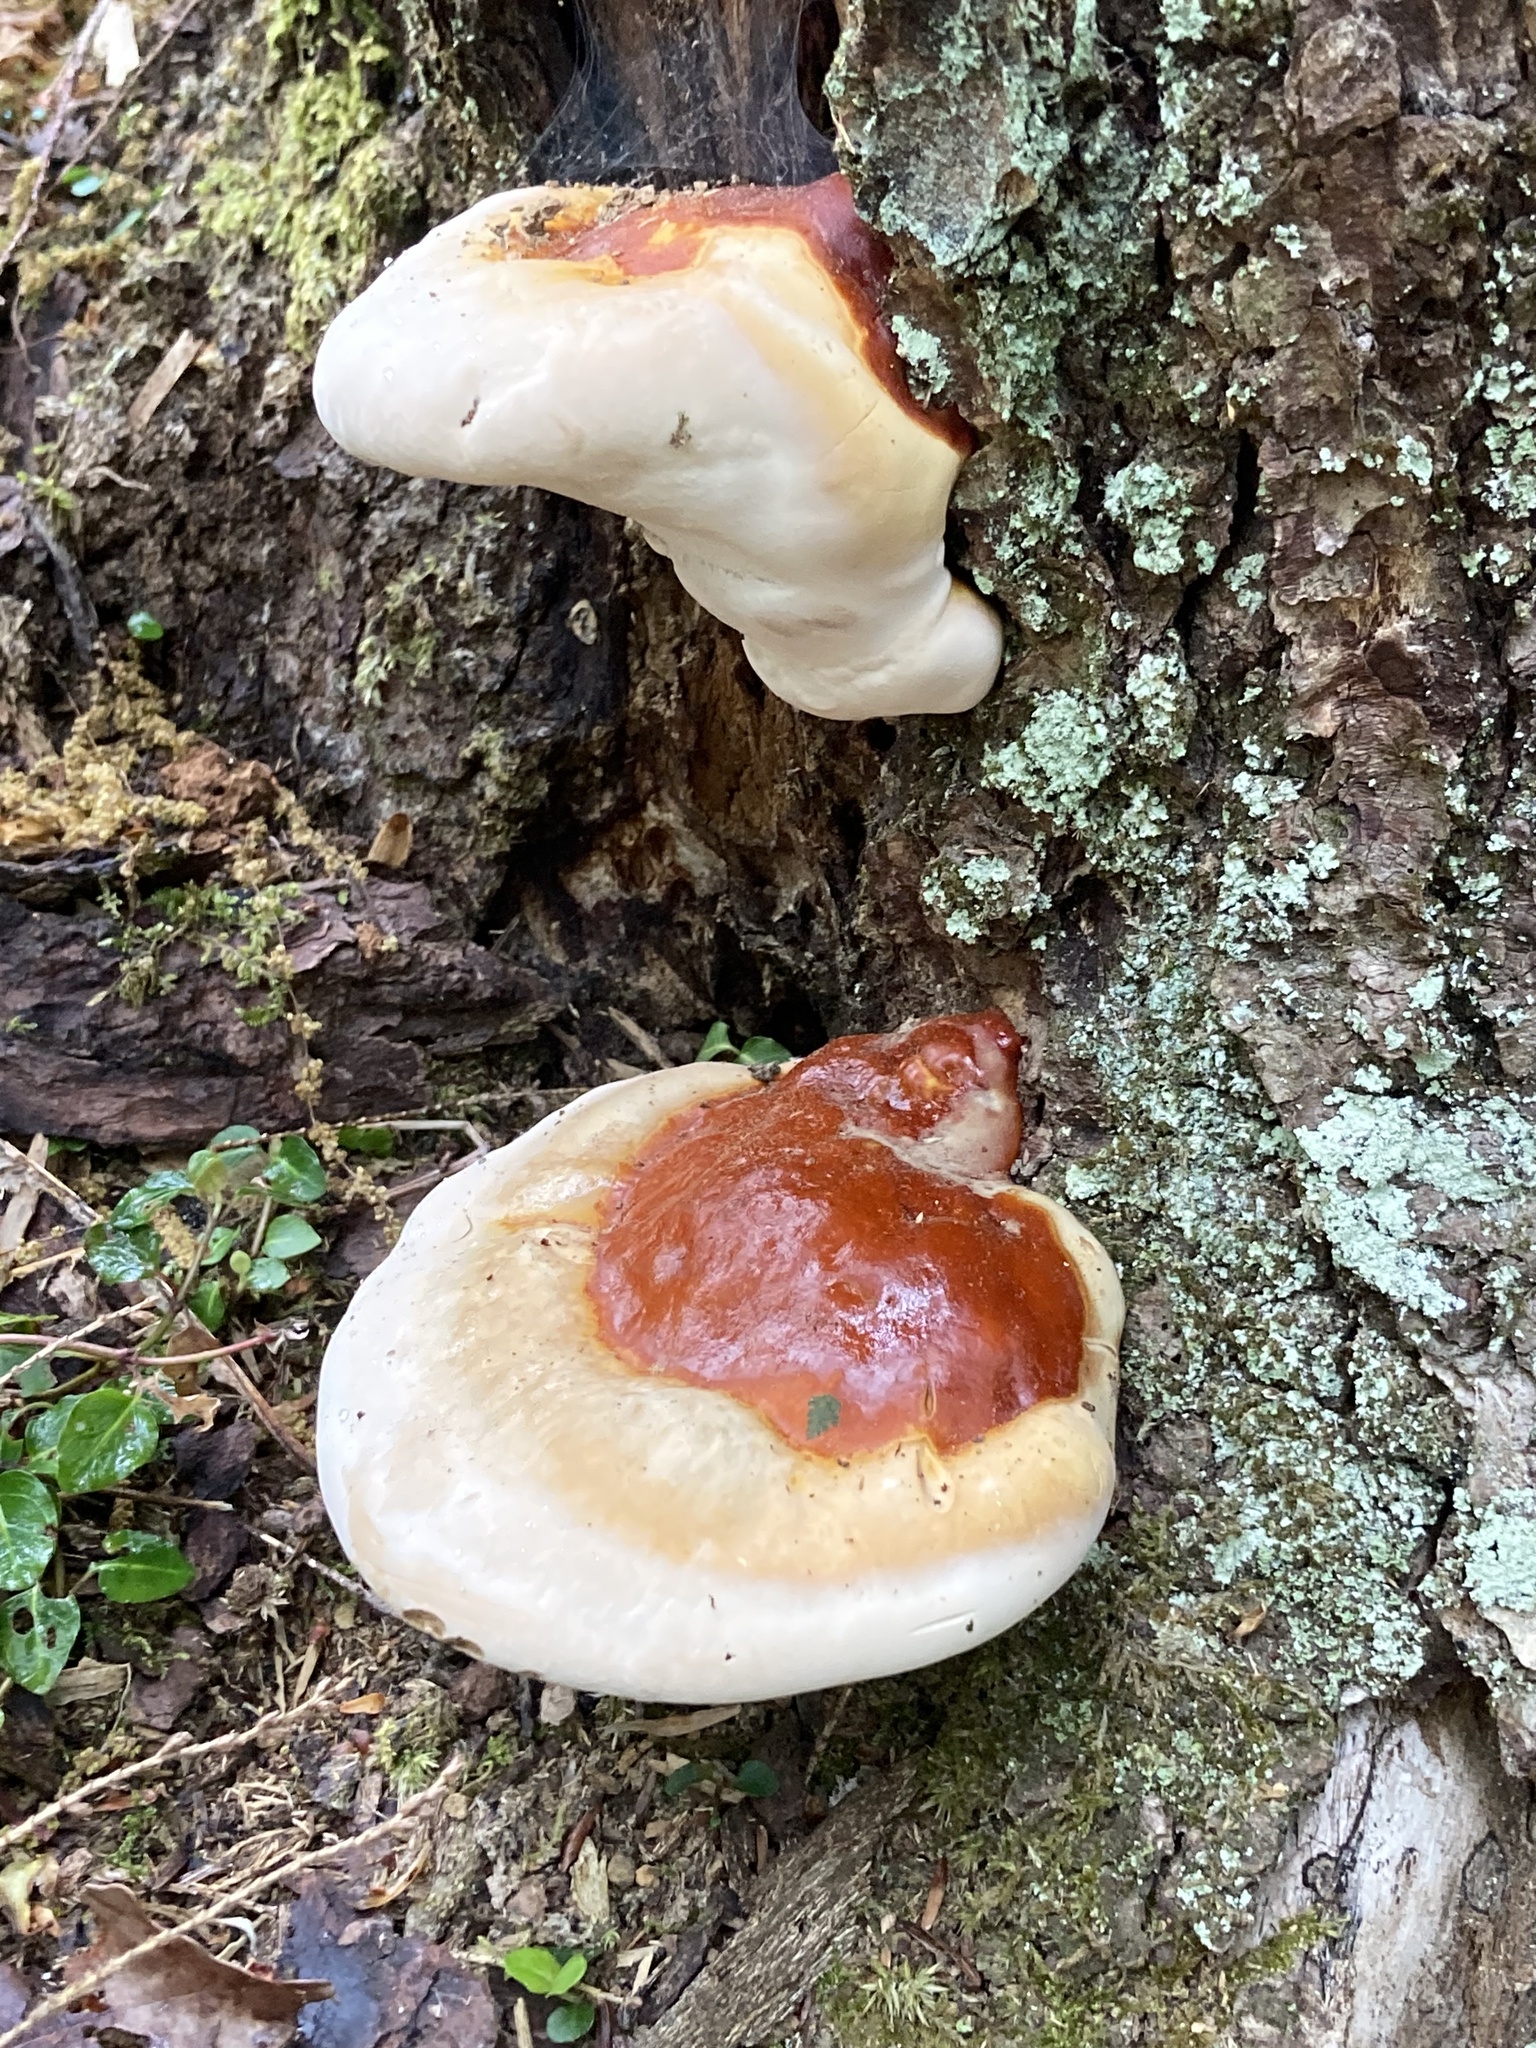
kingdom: Fungi
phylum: Basidiomycota
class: Agaricomycetes
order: Polyporales
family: Polyporaceae
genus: Ganoderma
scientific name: Ganoderma tsugae
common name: Hemlock varnish shelf
